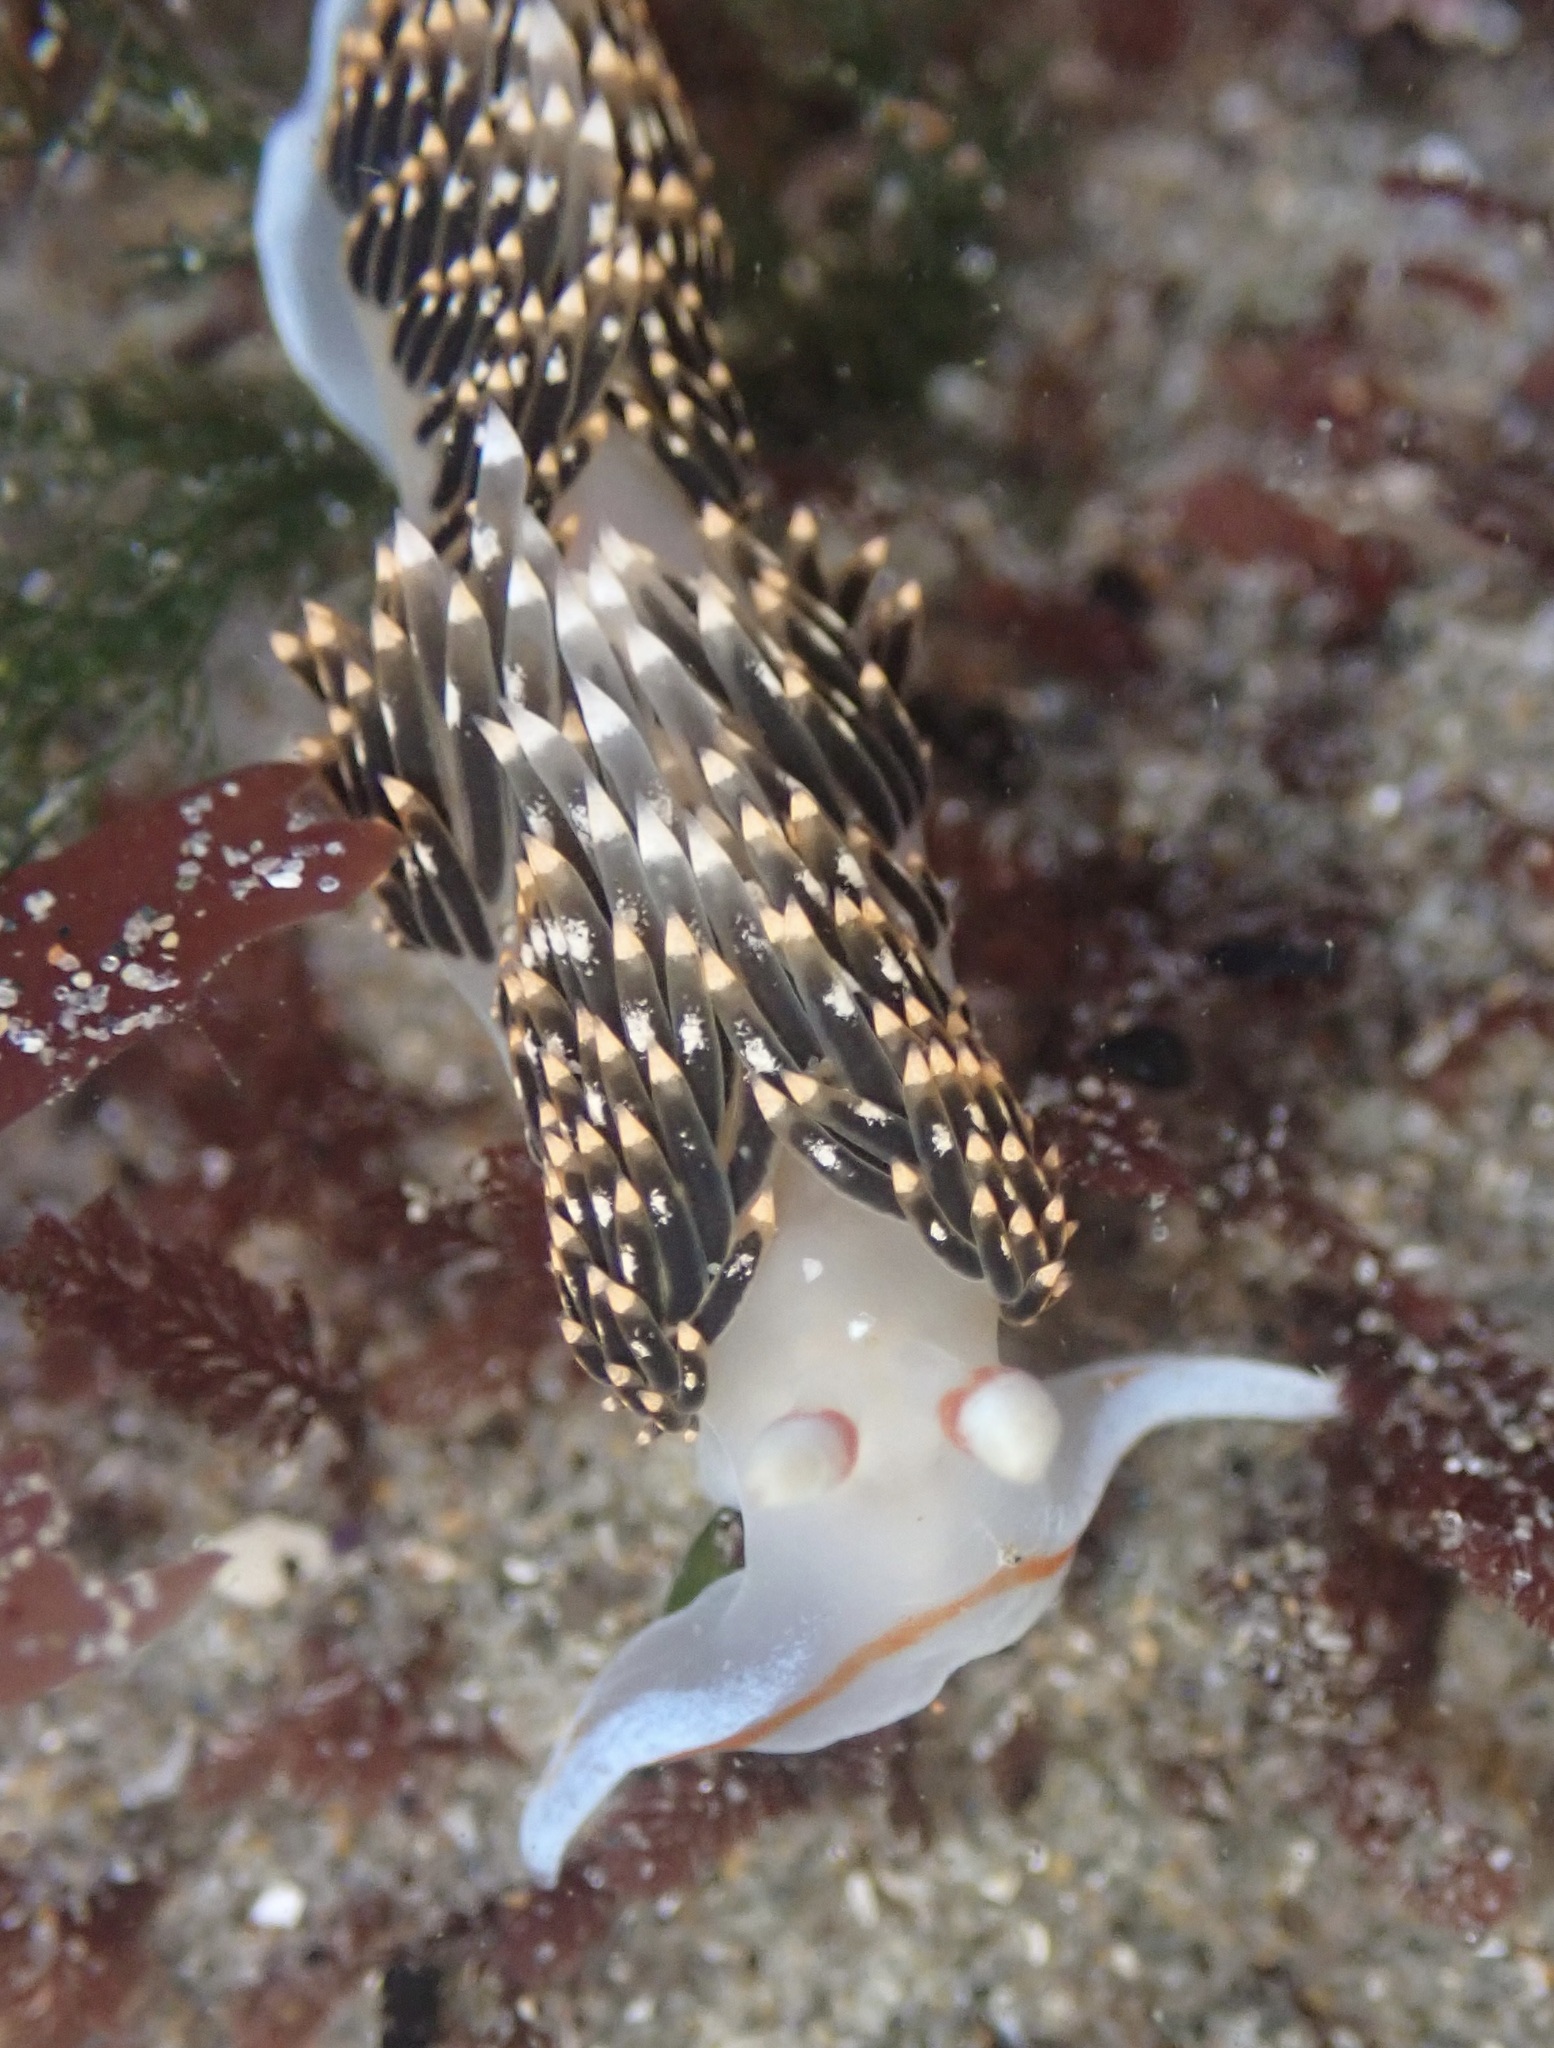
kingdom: Animalia
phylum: Mollusca
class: Gastropoda
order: Nudibranchia
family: Facelinidae
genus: Phidiana
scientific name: Phidiana hiltoni
